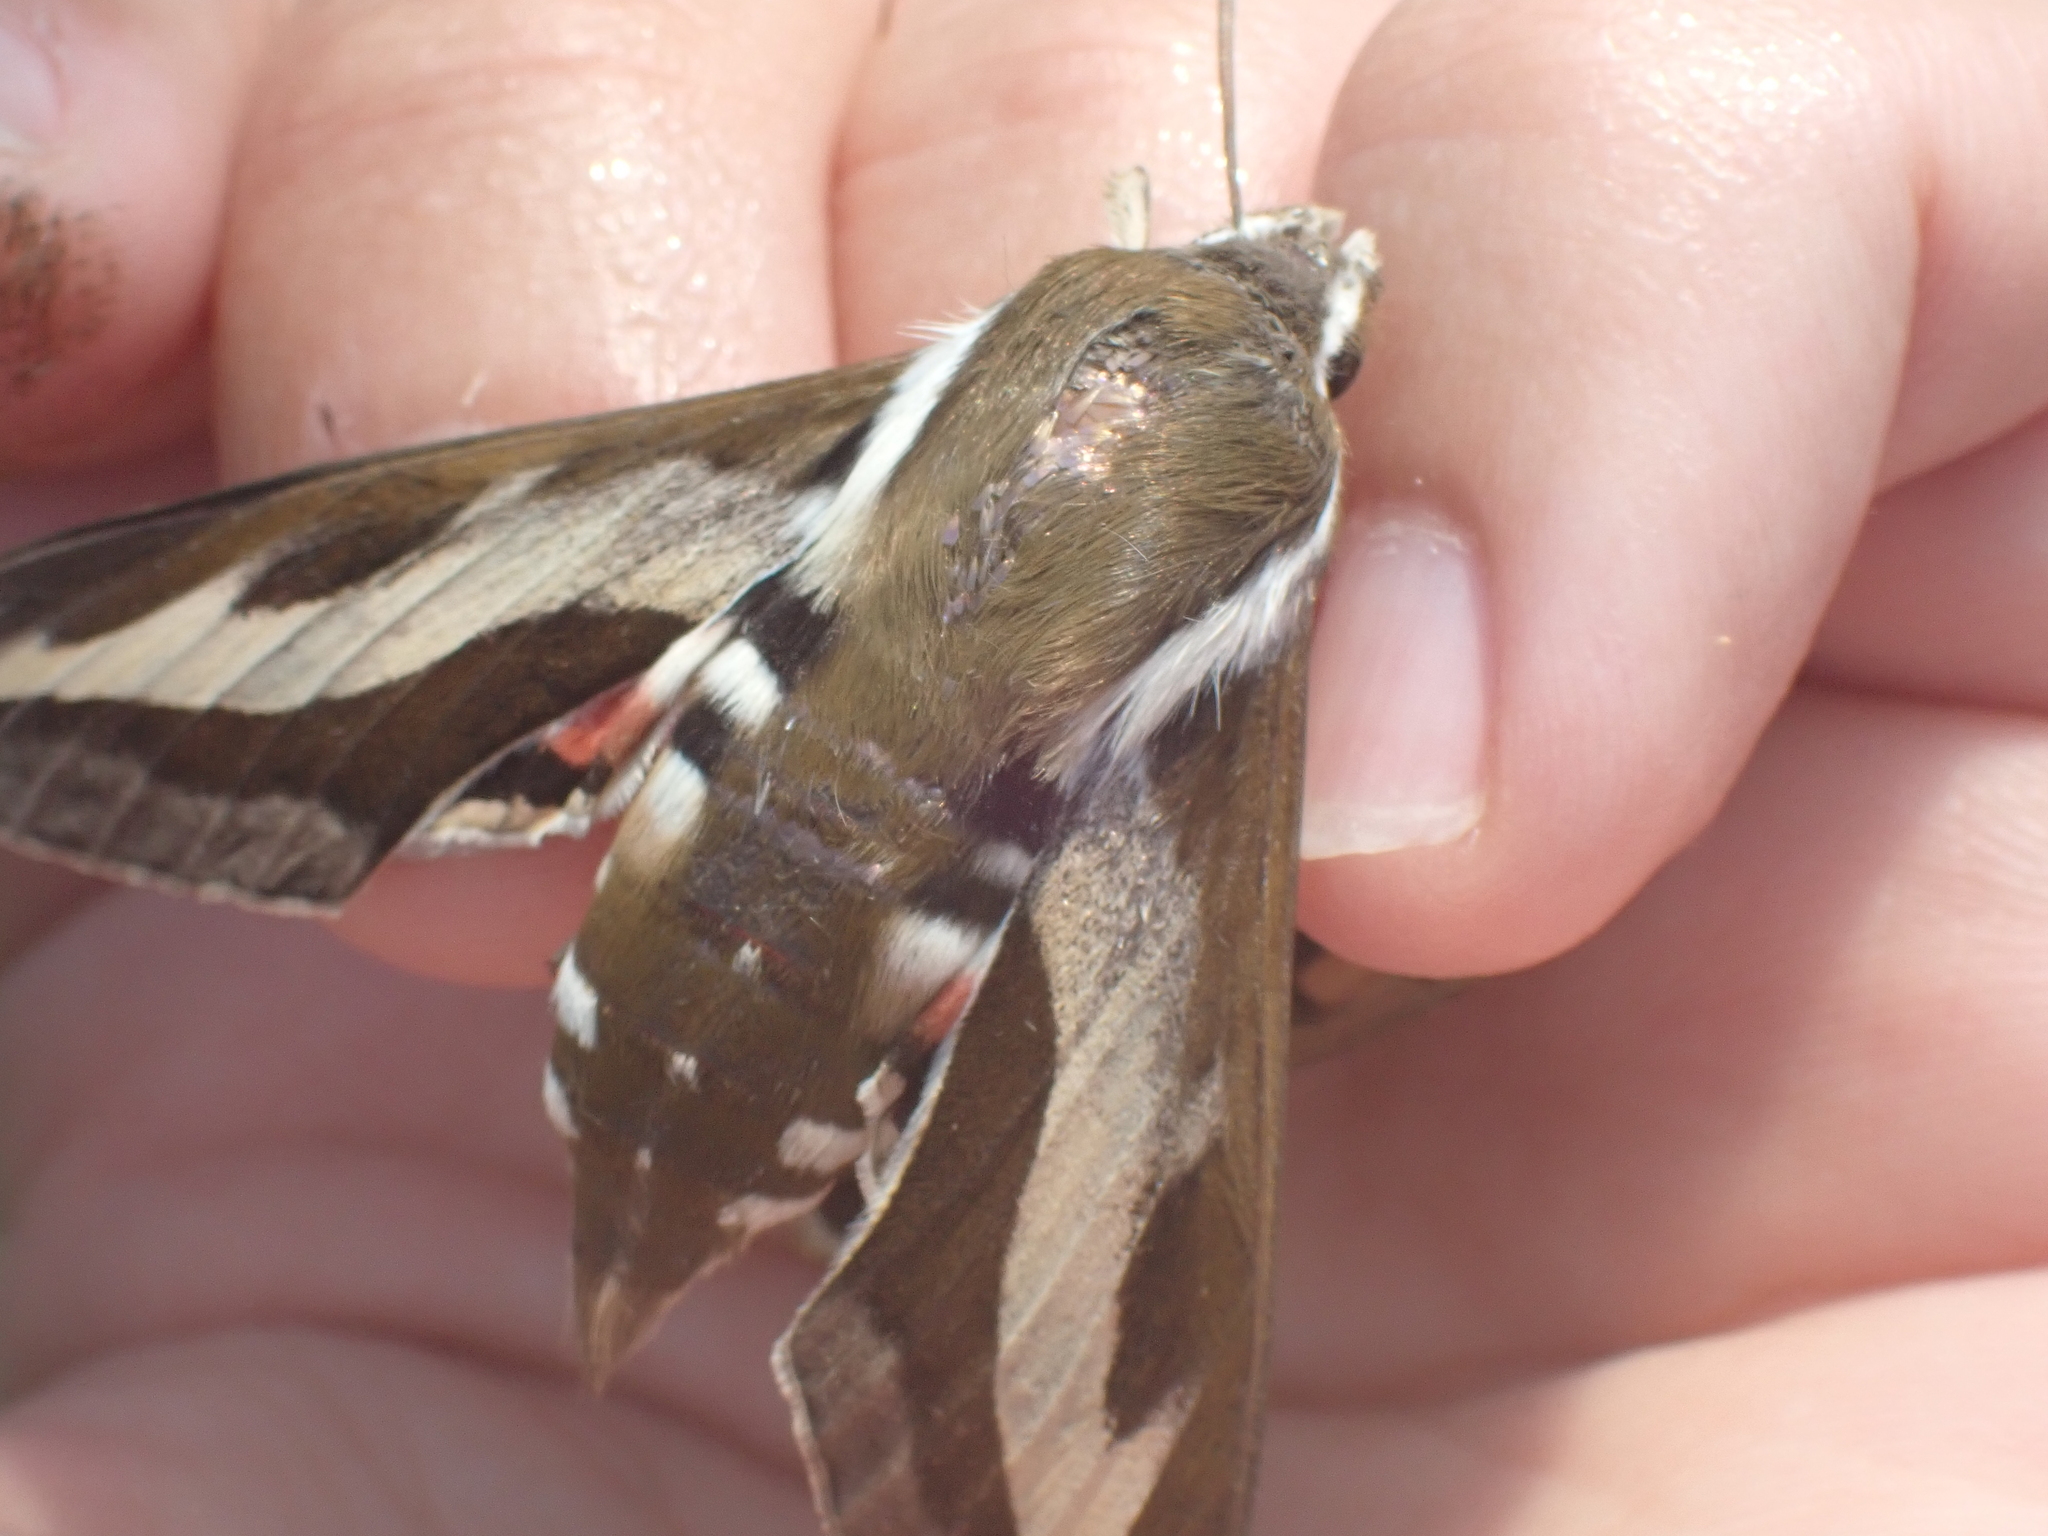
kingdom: Animalia
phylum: Arthropoda
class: Insecta
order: Lepidoptera
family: Sphingidae
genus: Hyles
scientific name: Hyles gallii
